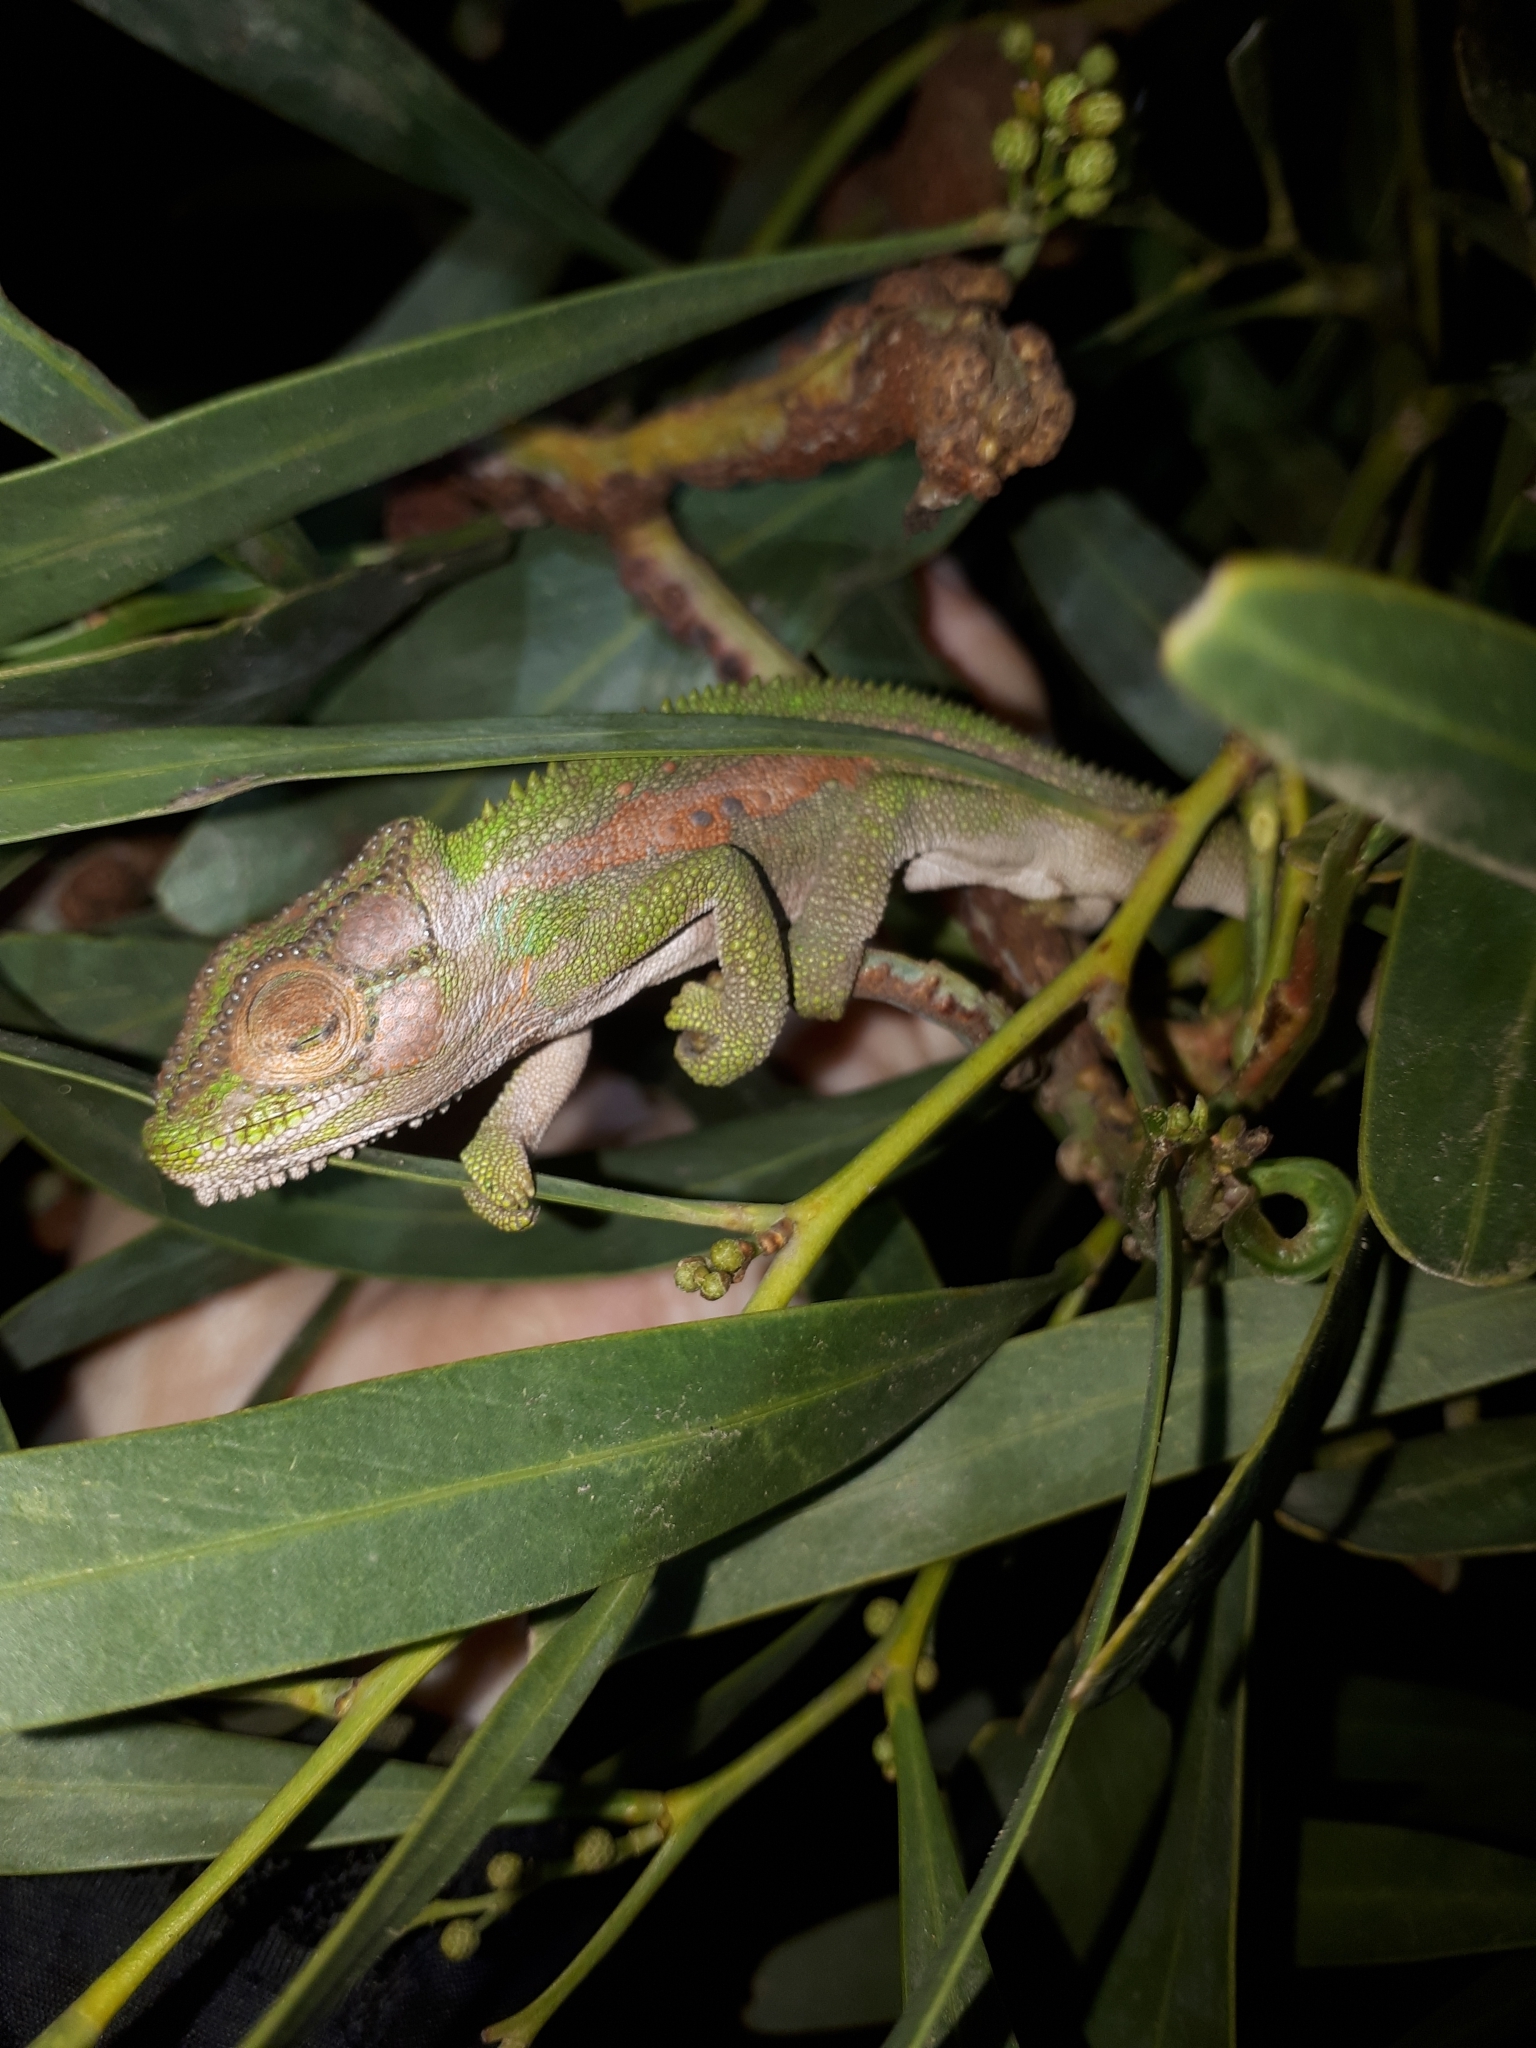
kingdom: Animalia
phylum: Chordata
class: Squamata
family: Chamaeleonidae
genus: Bradypodion
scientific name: Bradypodion pumilum
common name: Cape dwarf chameleon
